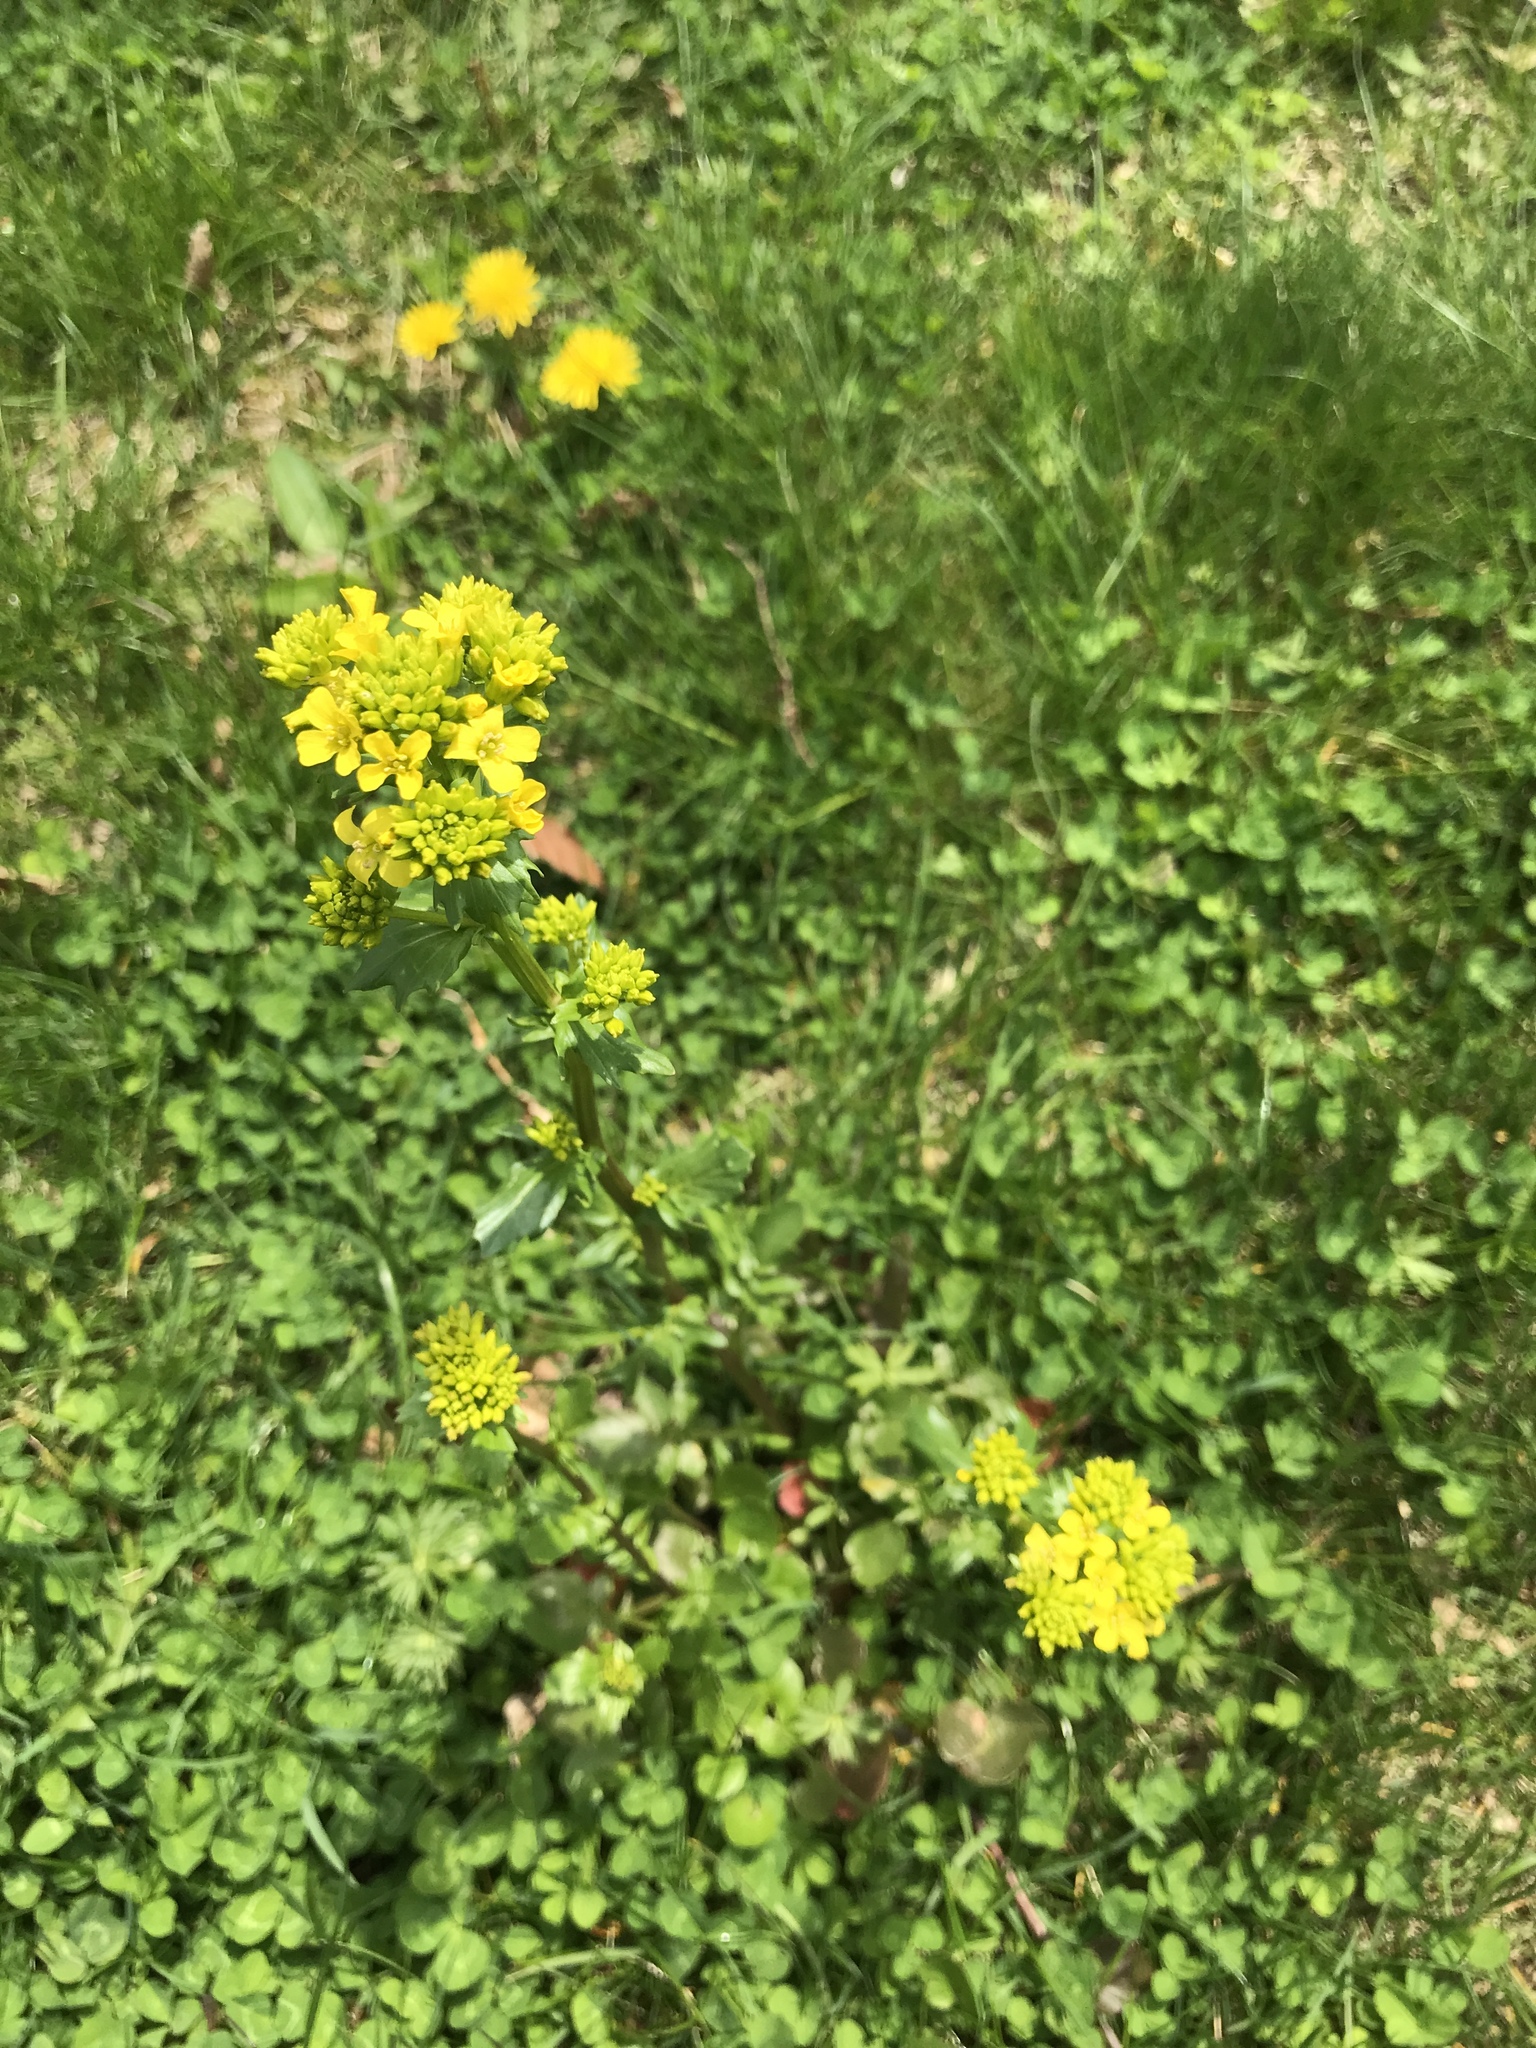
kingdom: Plantae
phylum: Tracheophyta
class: Magnoliopsida
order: Brassicales
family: Brassicaceae
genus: Barbarea
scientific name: Barbarea vulgaris
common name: Cressy-greens
